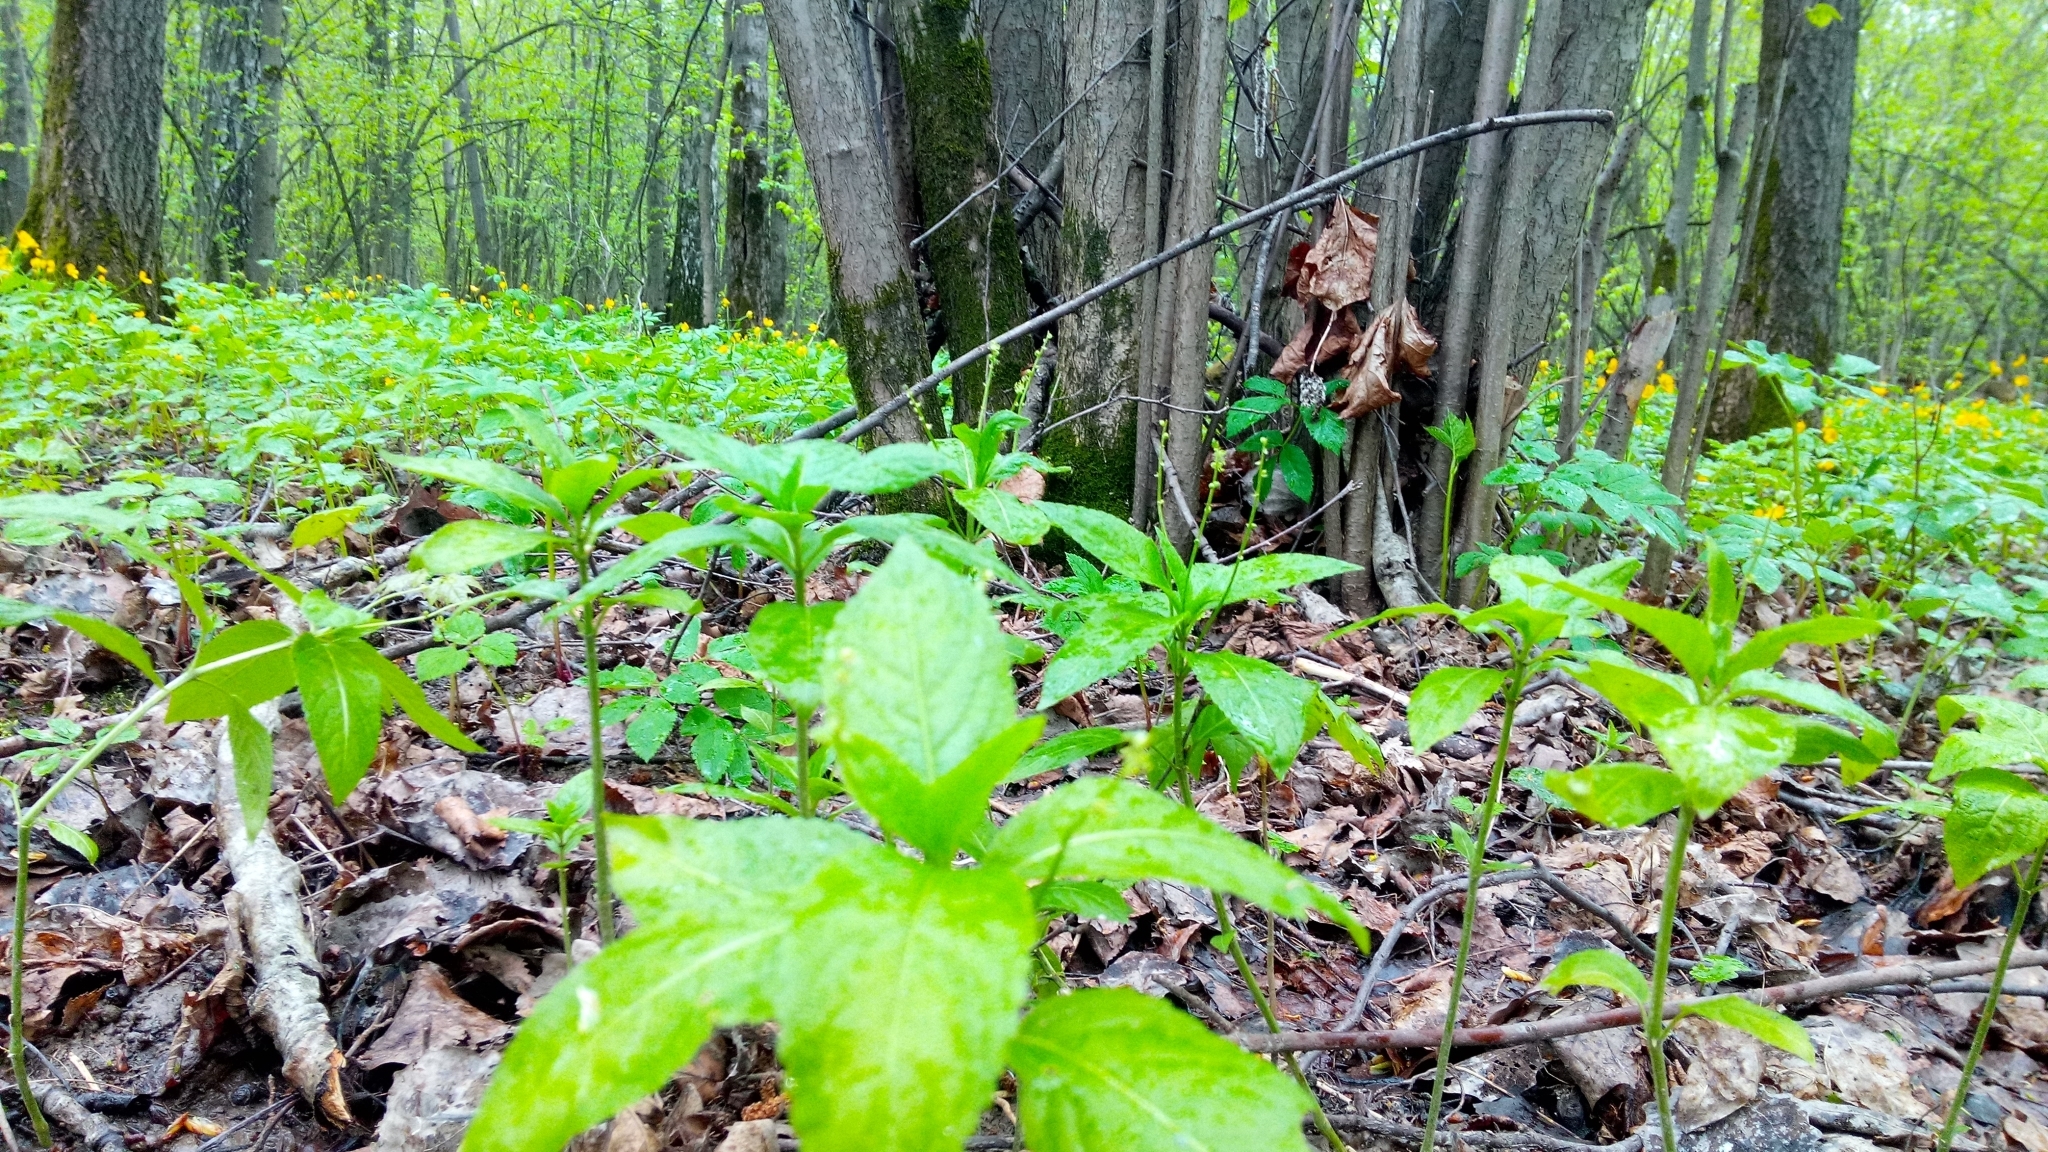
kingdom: Plantae
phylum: Tracheophyta
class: Magnoliopsida
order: Malpighiales
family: Euphorbiaceae
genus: Mercurialis
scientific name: Mercurialis perennis
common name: Dog mercury
